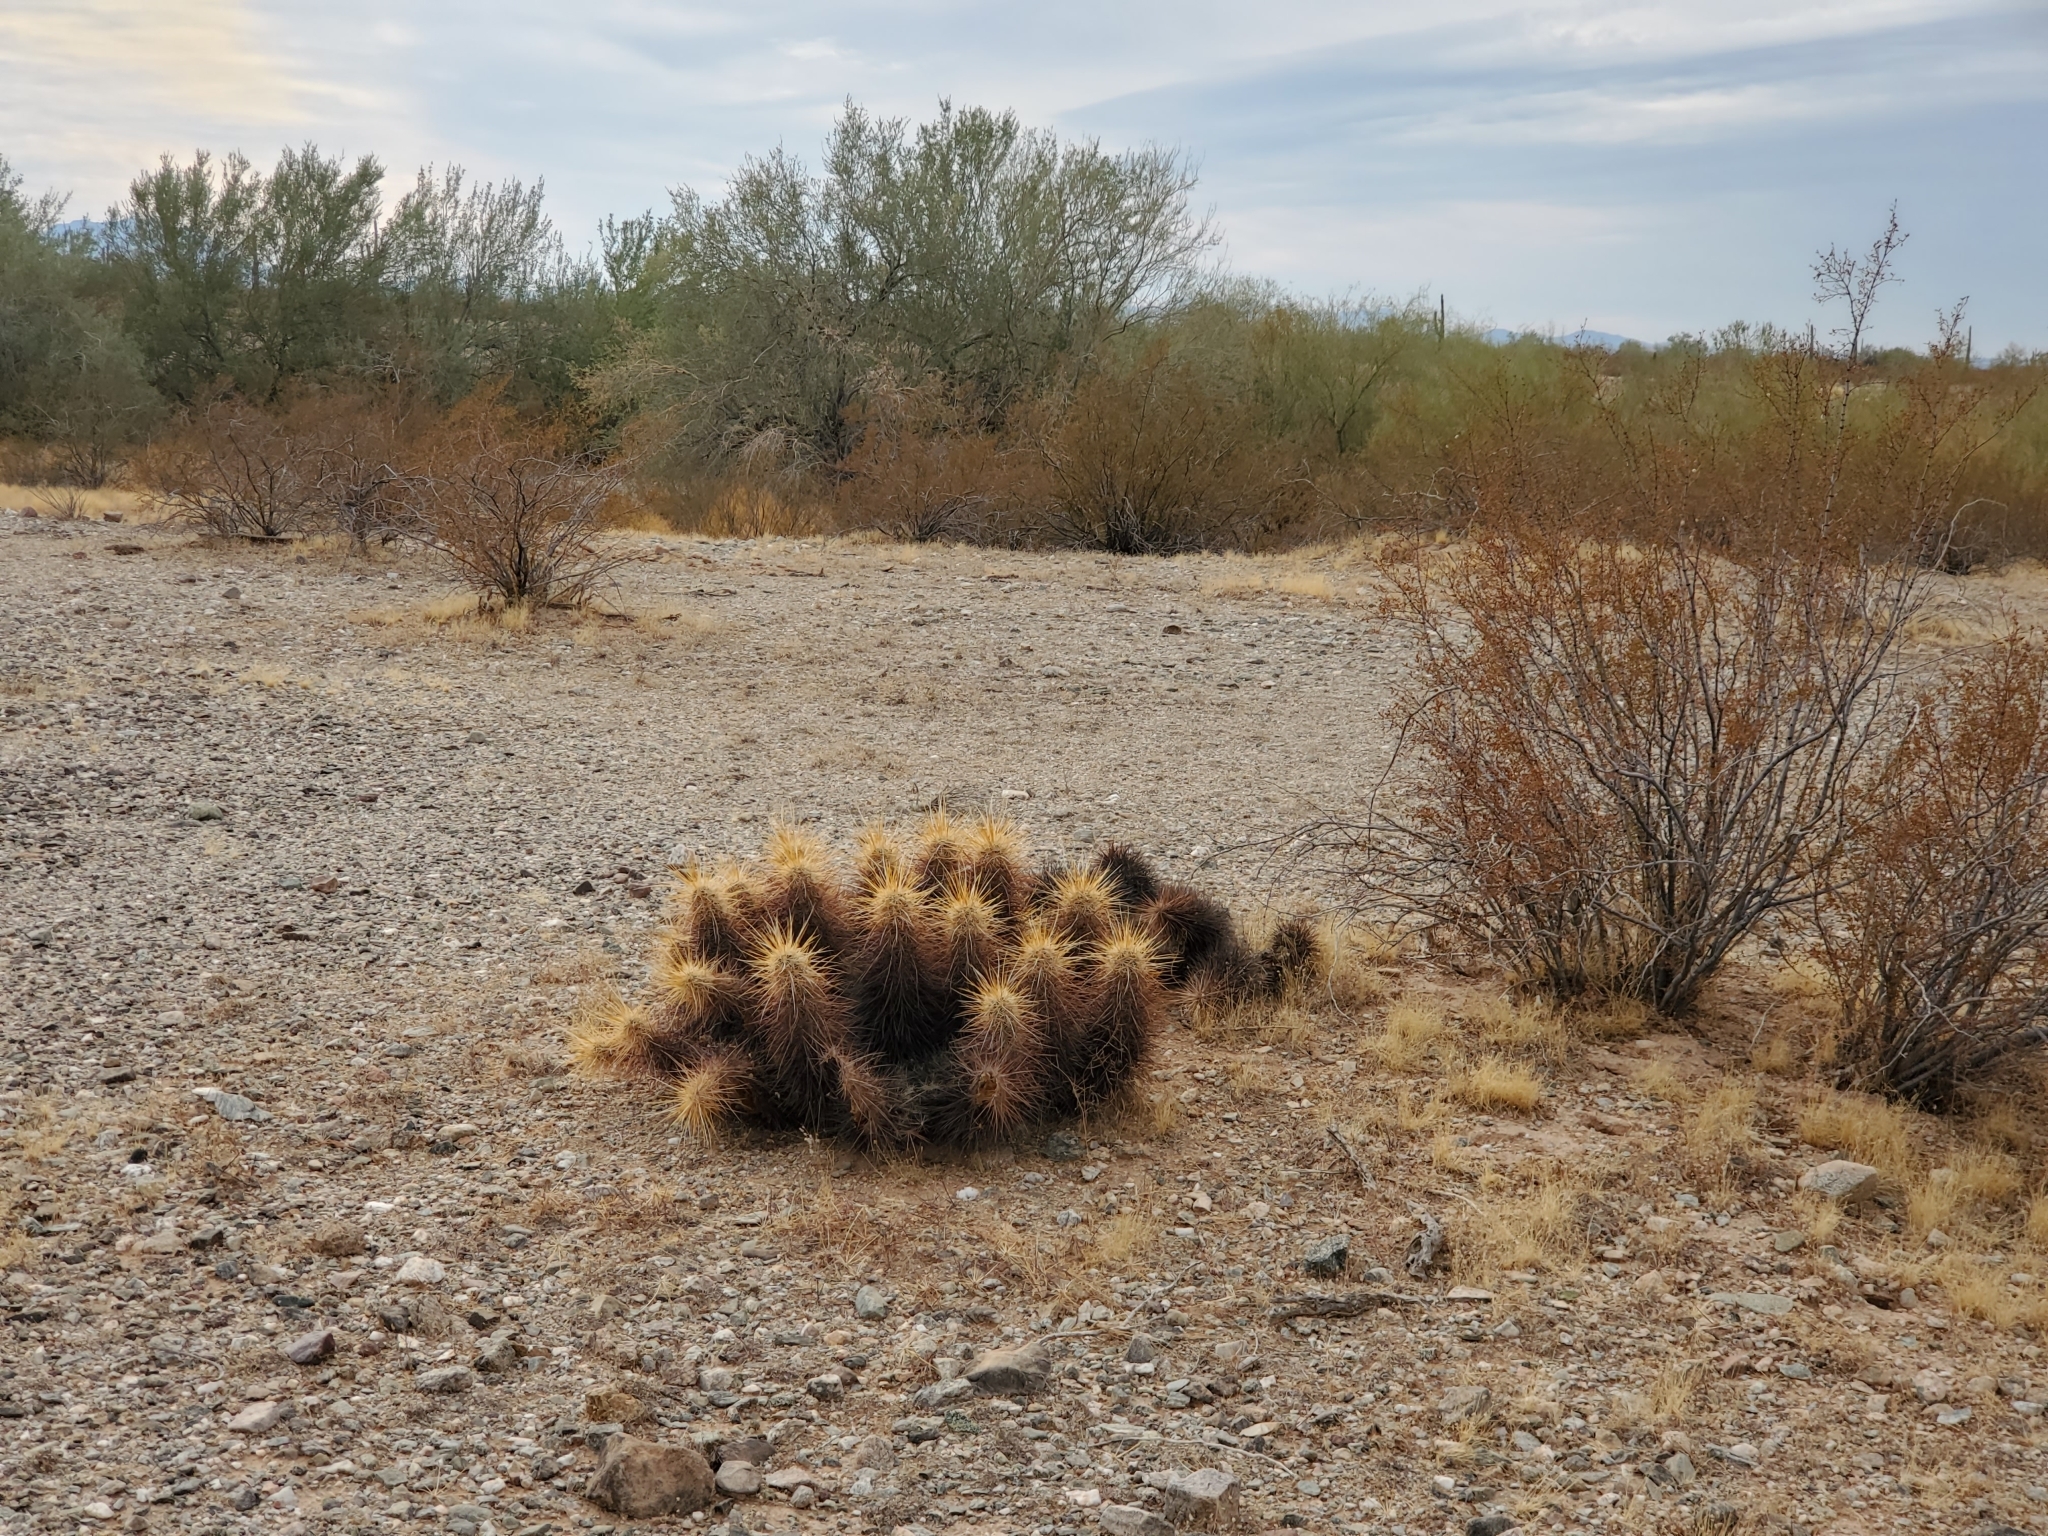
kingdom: Plantae
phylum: Tracheophyta
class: Magnoliopsida
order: Caryophyllales
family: Cactaceae
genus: Echinocereus
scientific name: Echinocereus engelmannii
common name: Engelmann's hedgehog cactus
